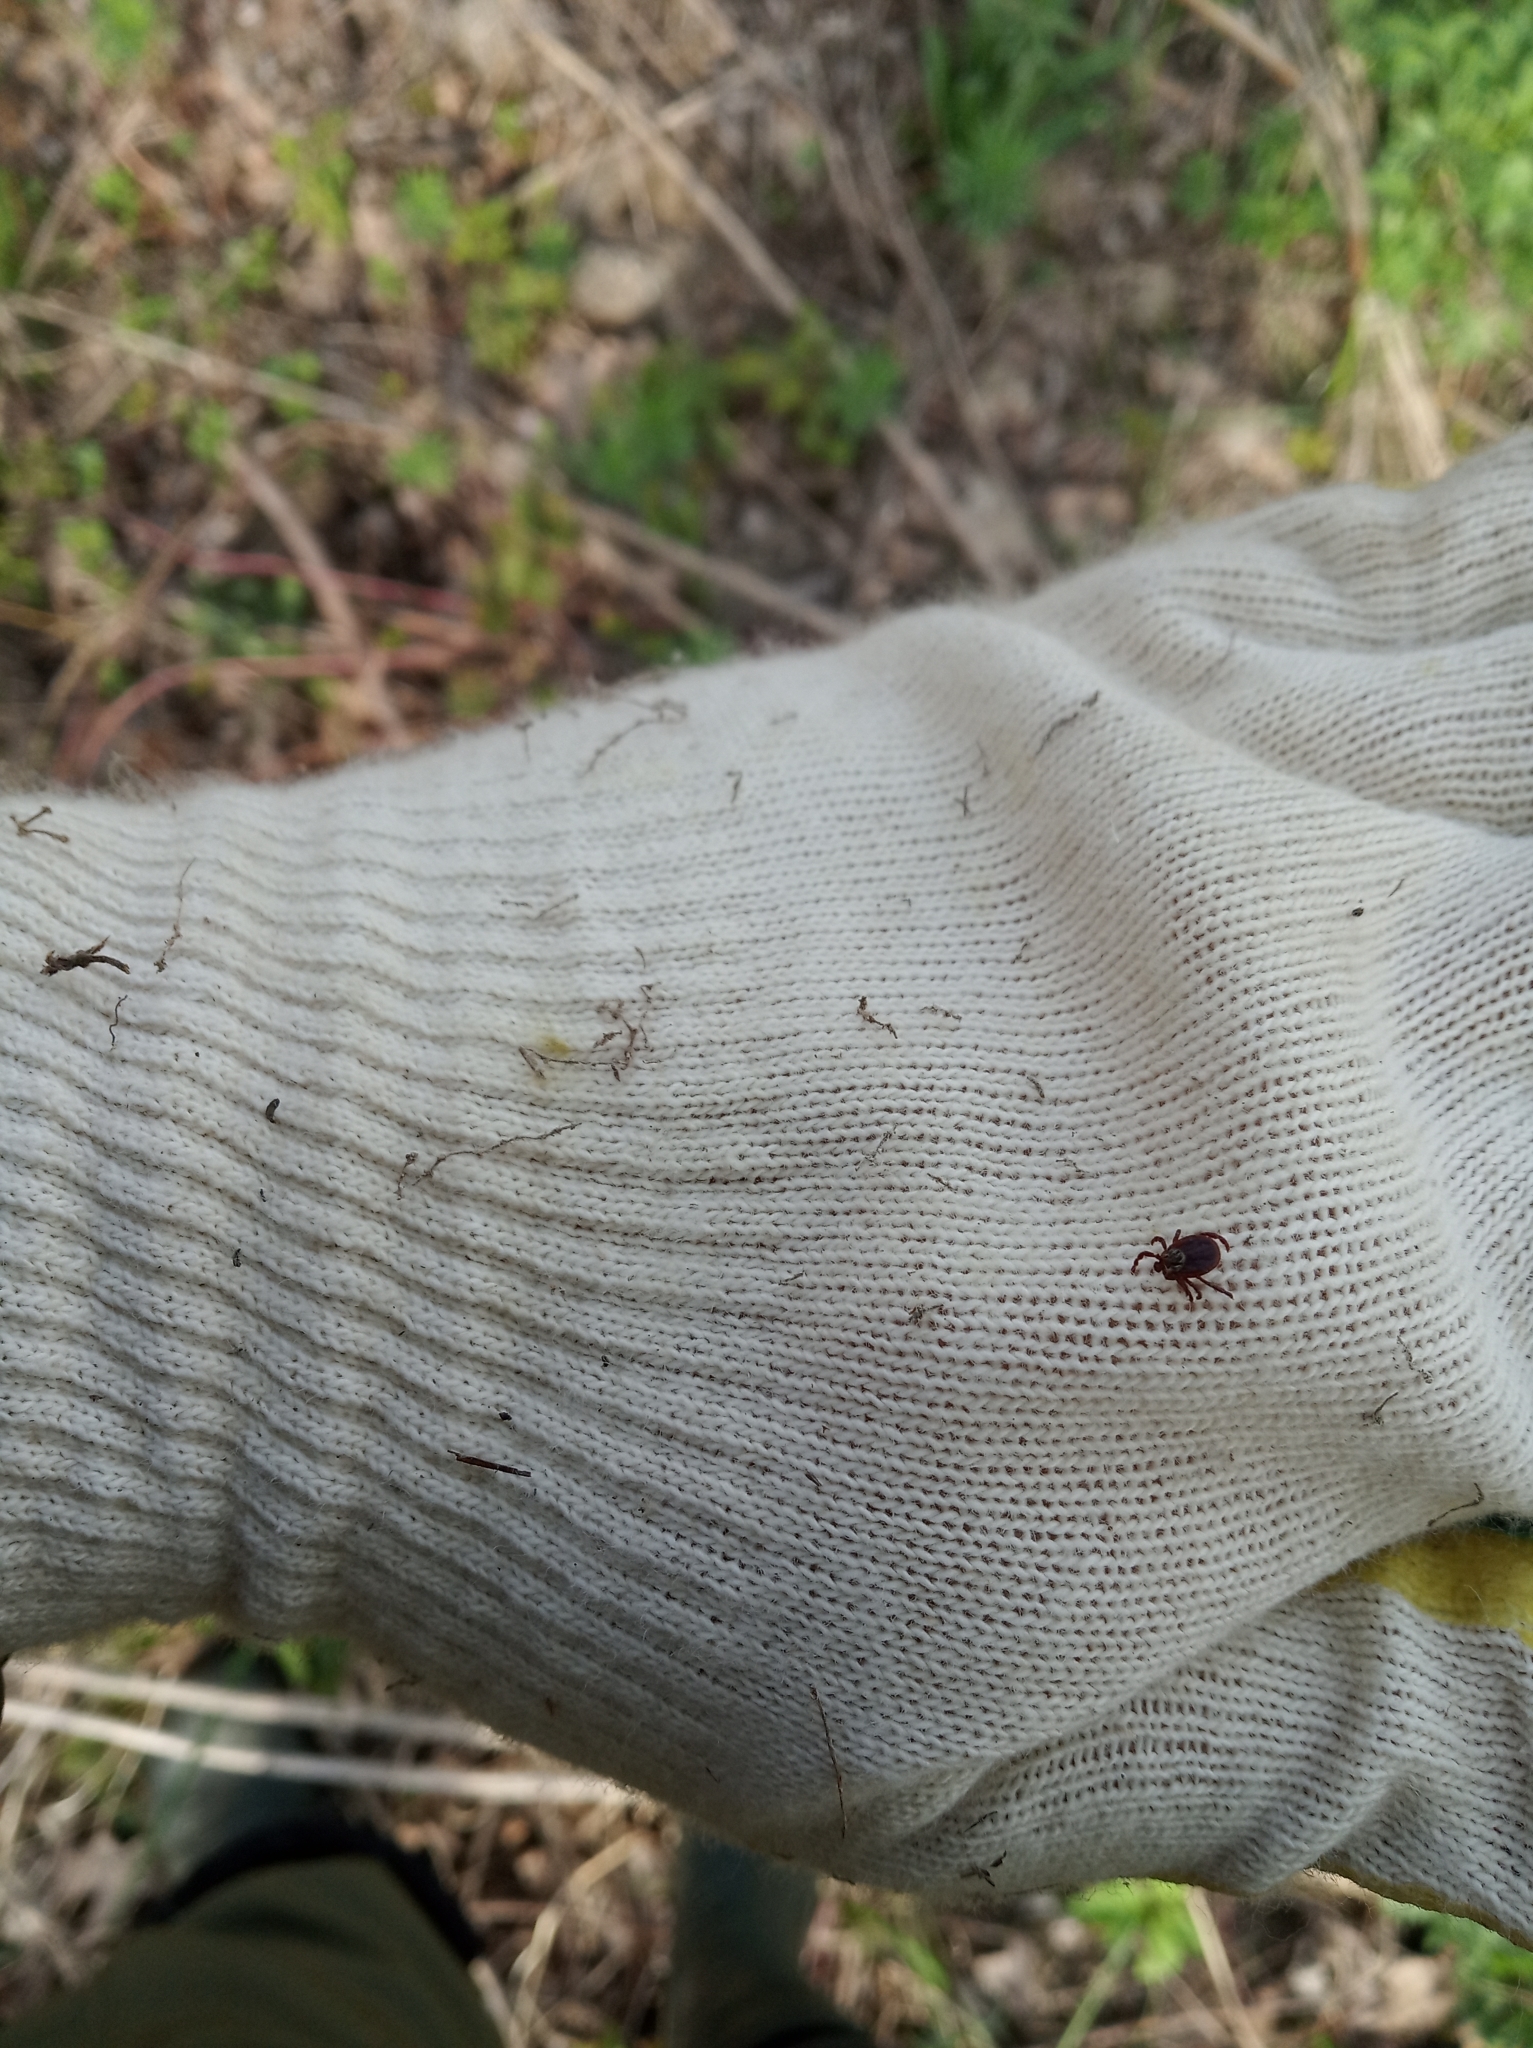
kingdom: Animalia
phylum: Arthropoda
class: Arachnida
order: Ixodida
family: Ixodidae
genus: Dermacentor
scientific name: Dermacentor reticulatus
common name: Ornate cow tick
